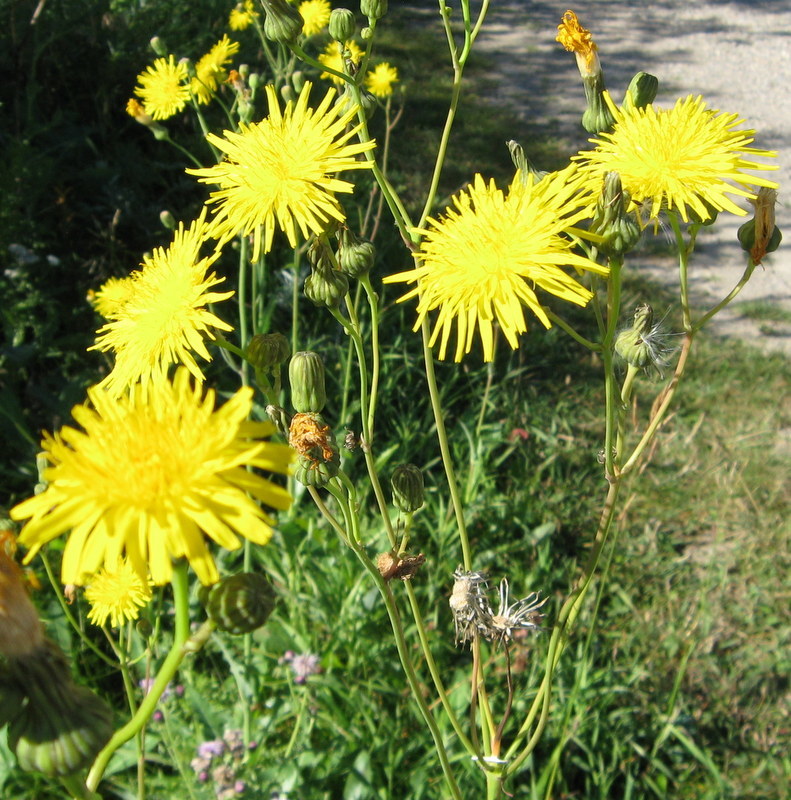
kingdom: Plantae
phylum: Tracheophyta
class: Magnoliopsida
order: Asterales
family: Asteraceae
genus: Sonchus
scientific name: Sonchus arvensis
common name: Perennial sow-thistle
